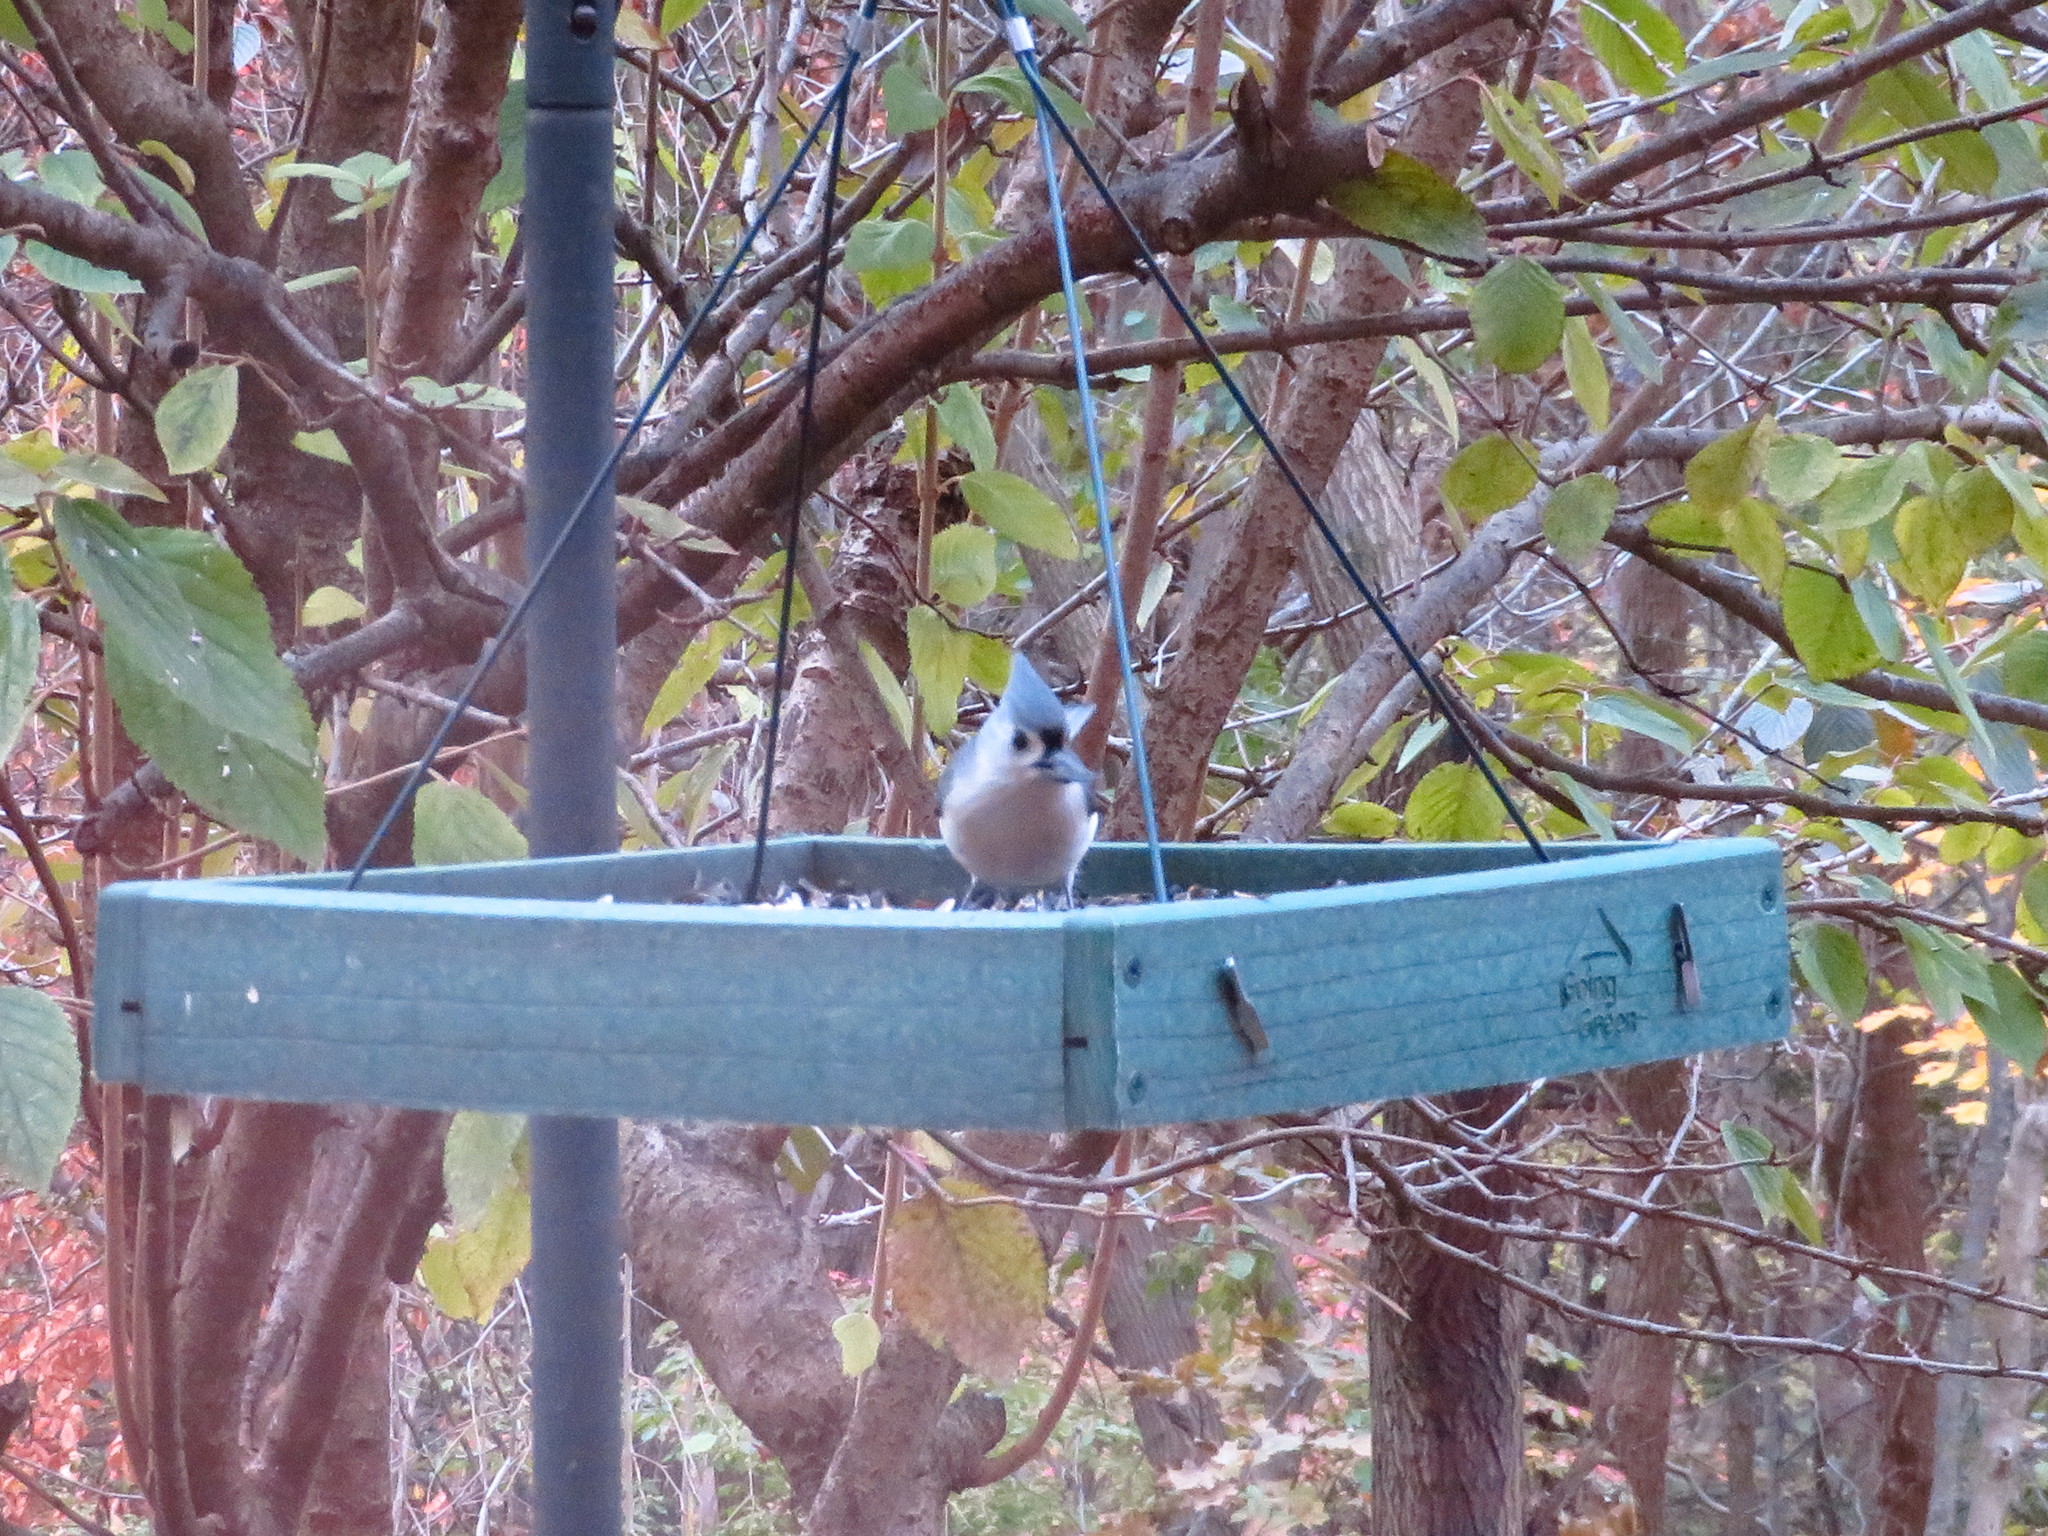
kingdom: Animalia
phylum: Chordata
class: Aves
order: Passeriformes
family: Paridae
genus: Baeolophus
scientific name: Baeolophus bicolor
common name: Tufted titmouse
